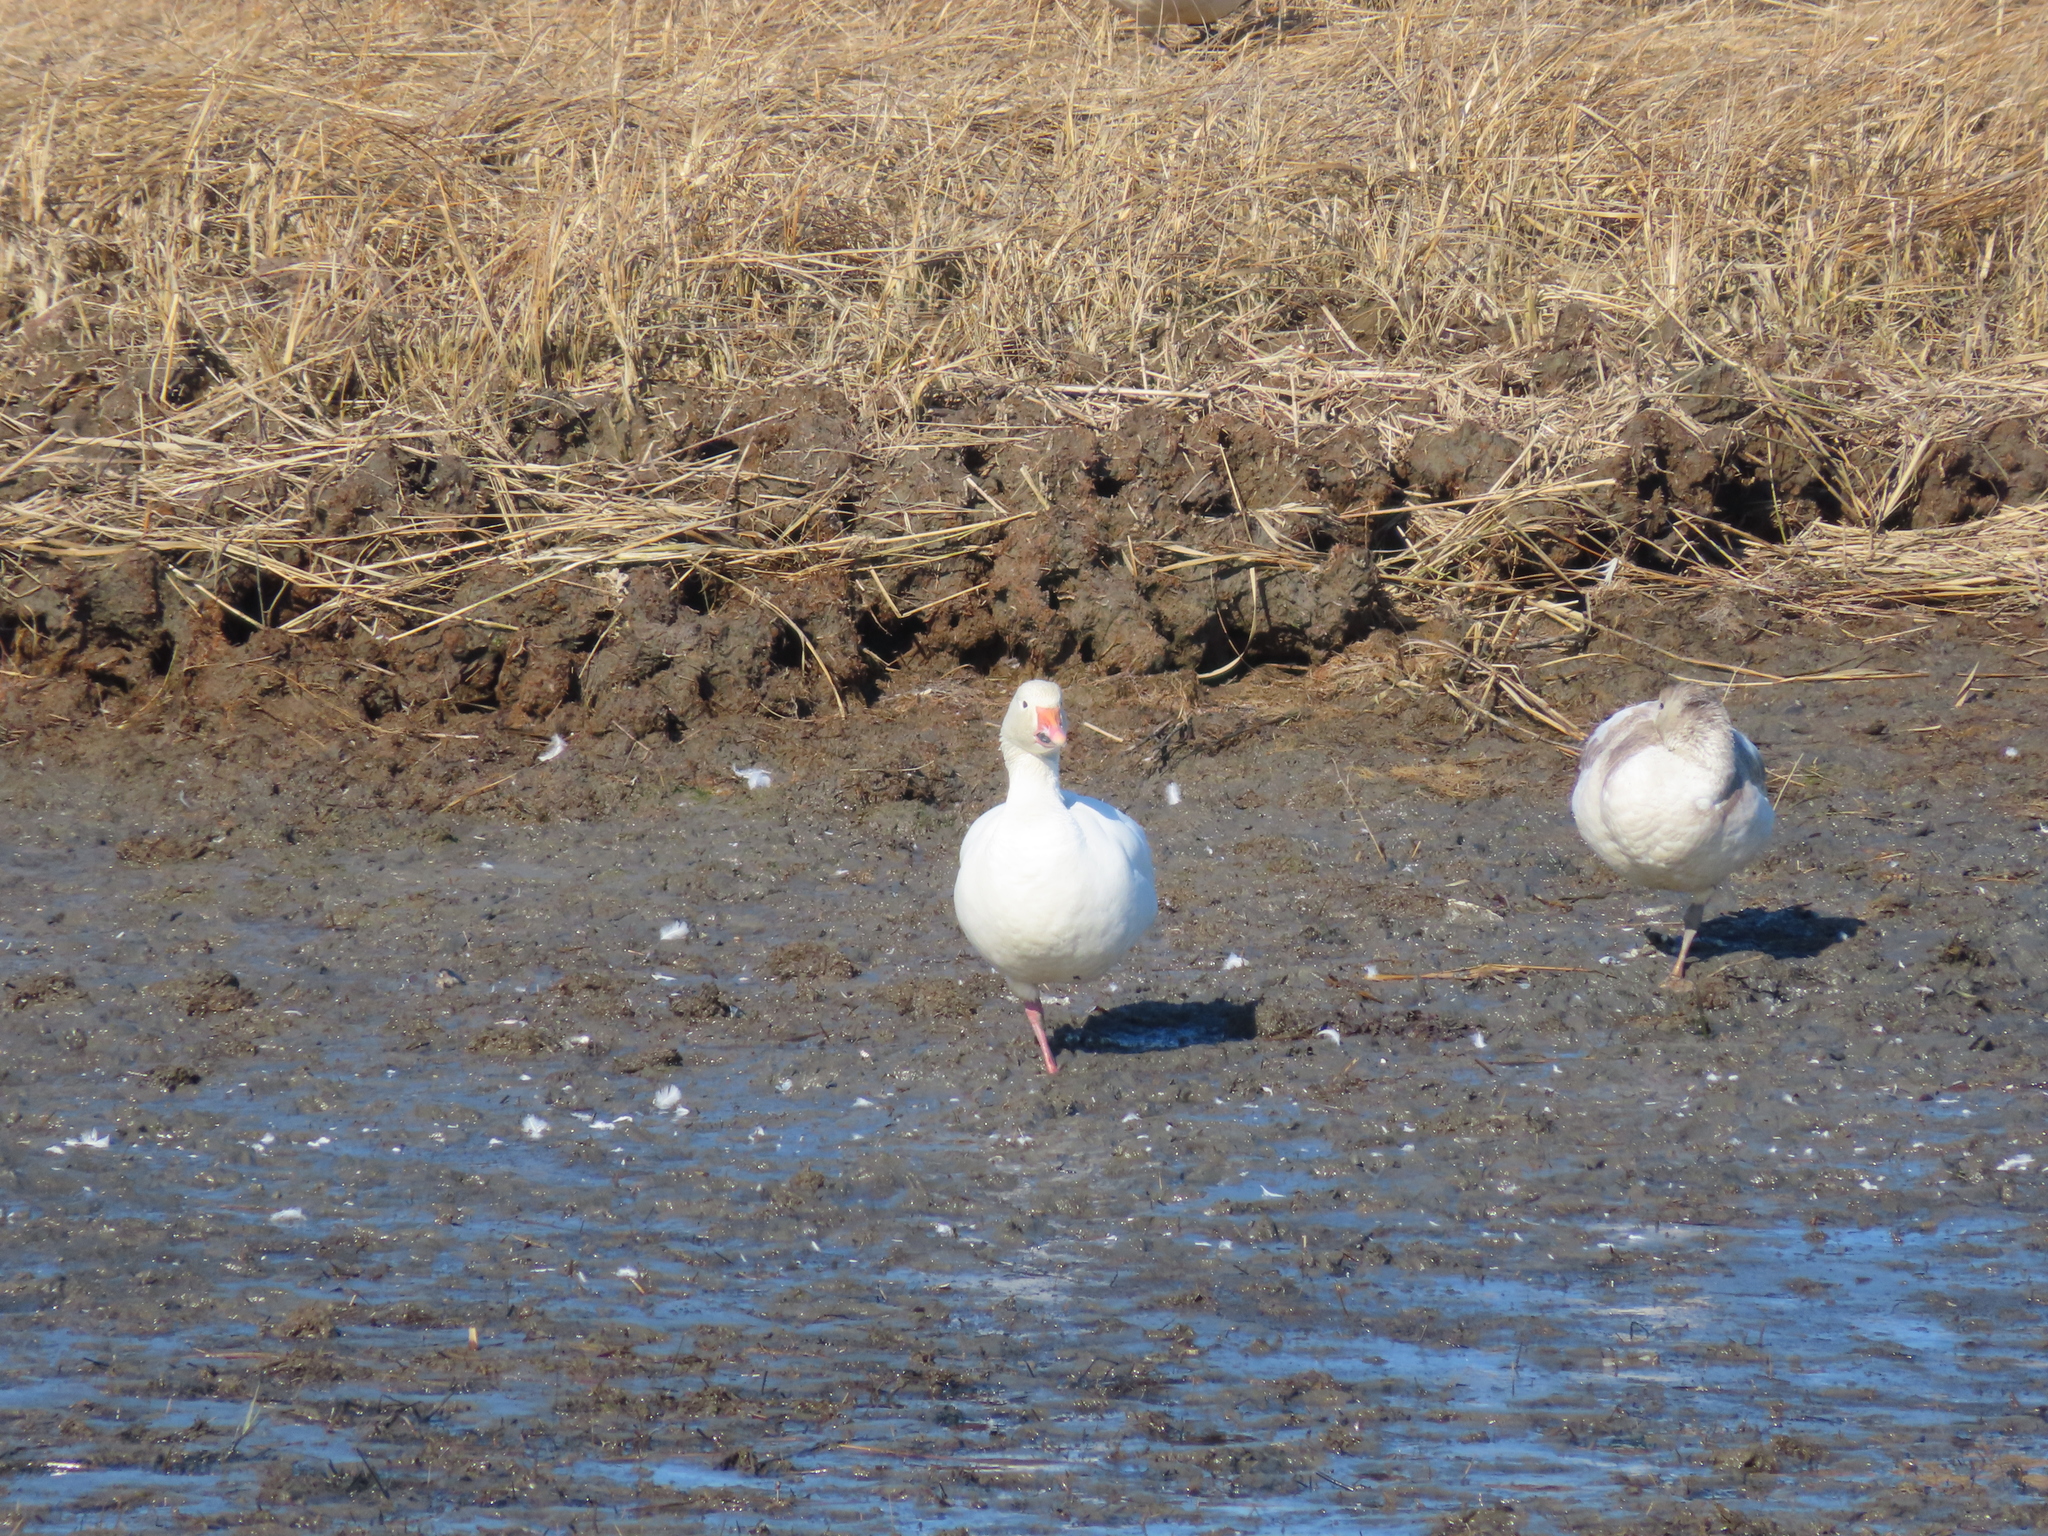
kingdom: Animalia
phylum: Chordata
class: Aves
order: Anseriformes
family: Anatidae
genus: Anser
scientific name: Anser caerulescens
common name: Snow goose
